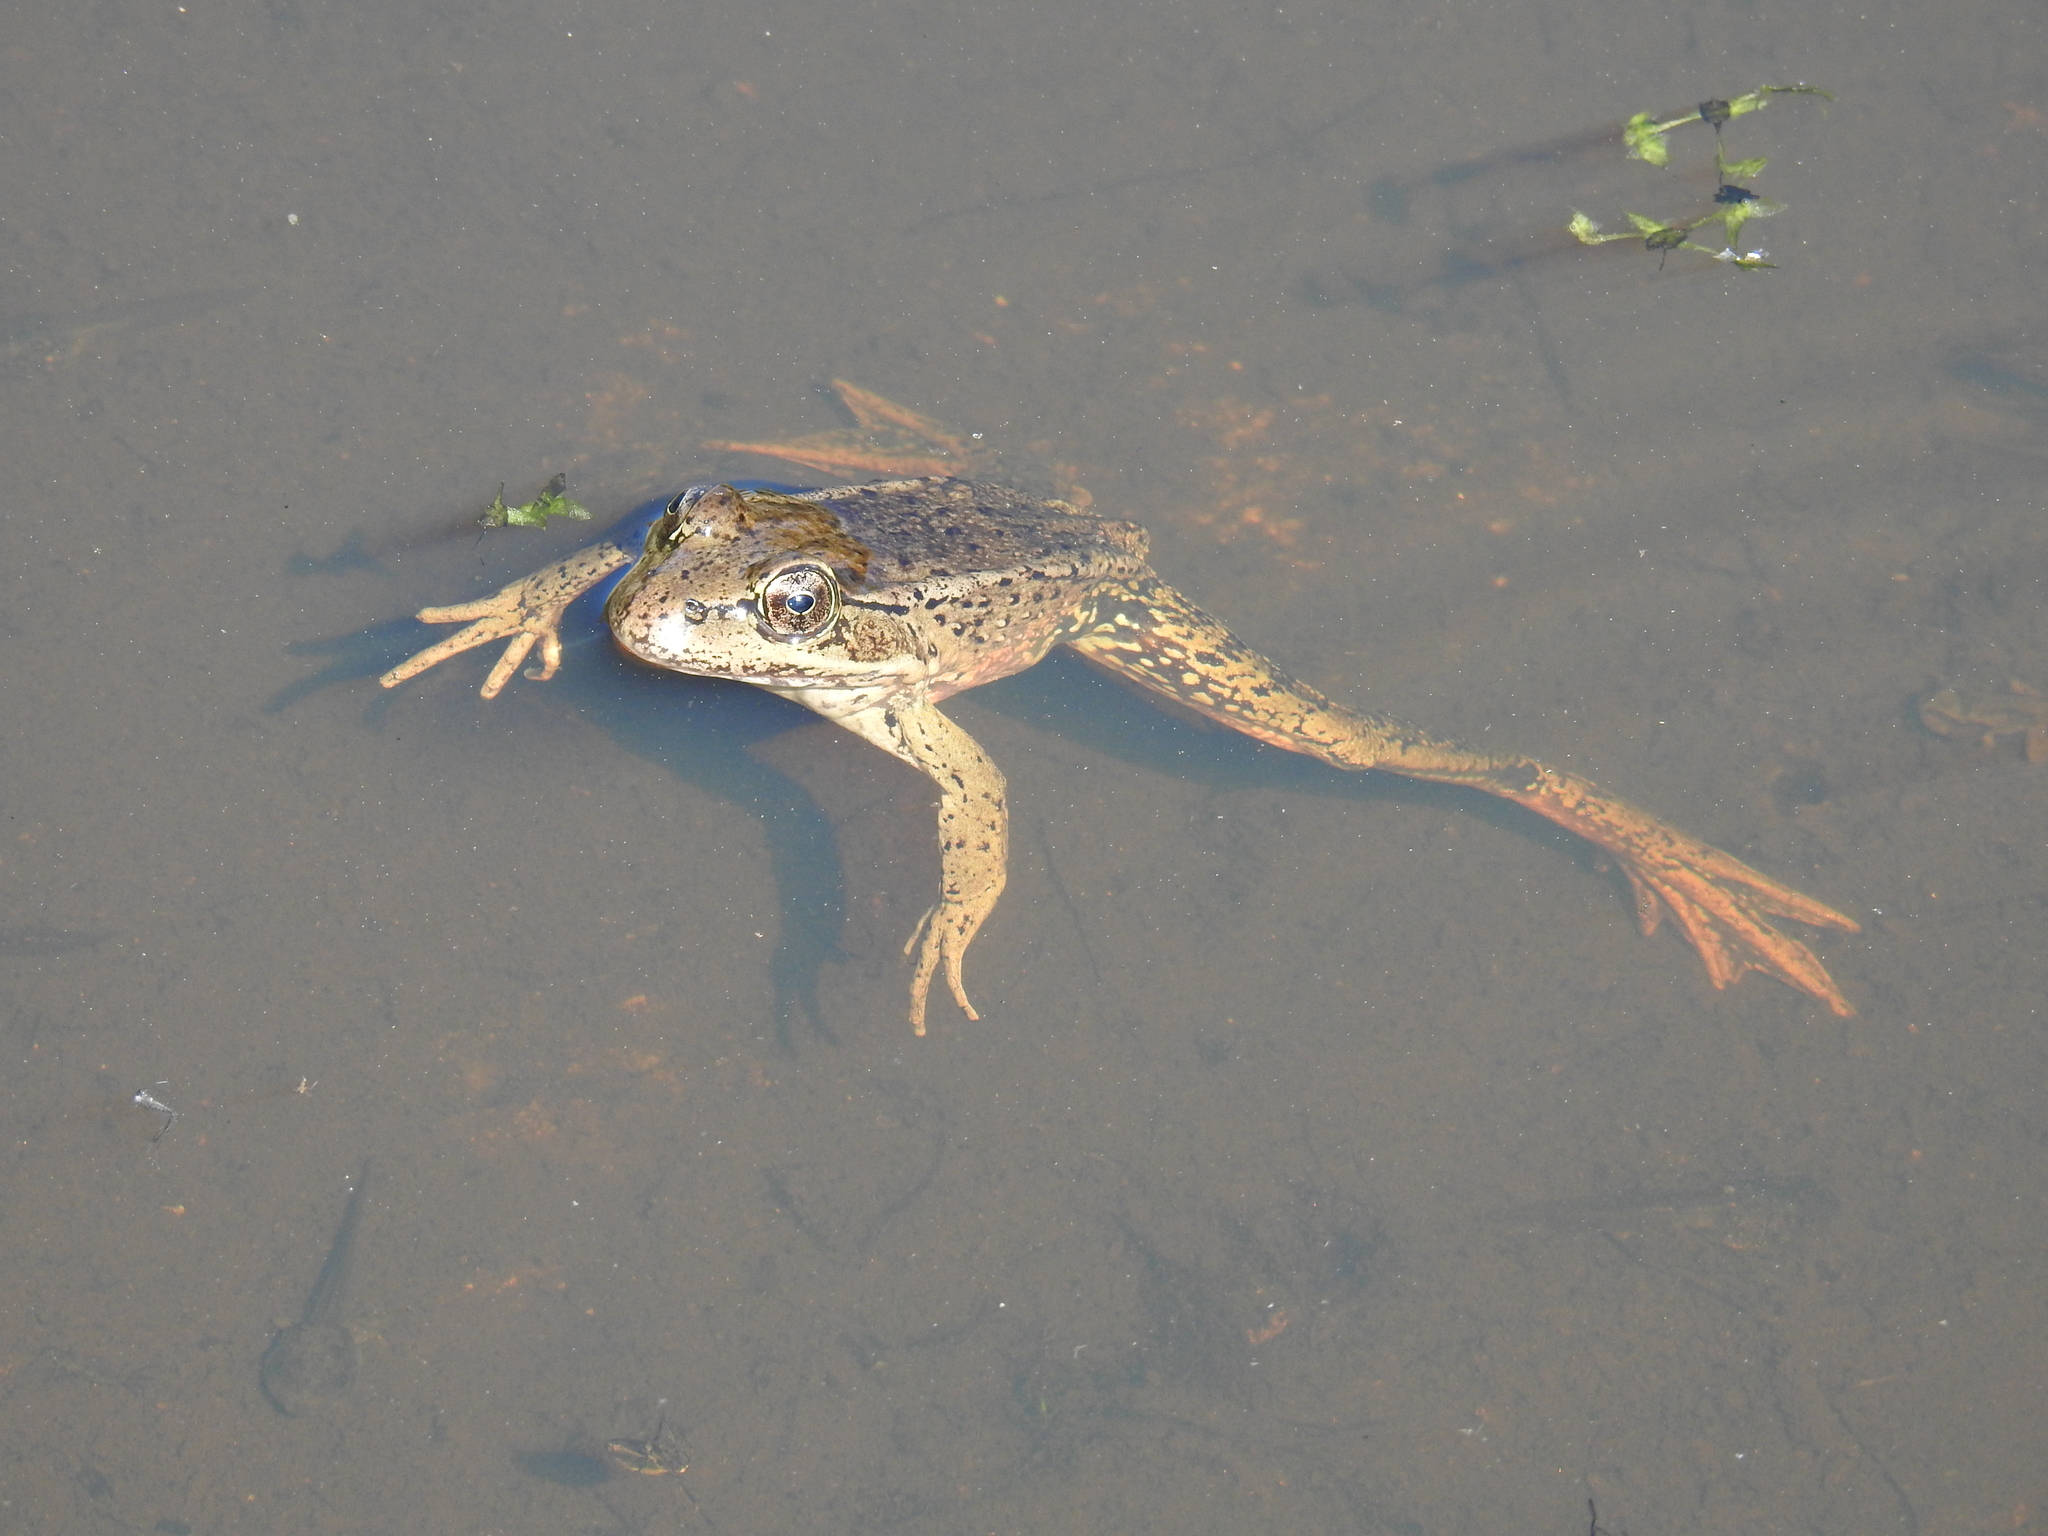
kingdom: Animalia
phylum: Chordata
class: Amphibia
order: Anura
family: Ranidae
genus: Rana
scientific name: Rana draytonii
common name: California red-legged frog
